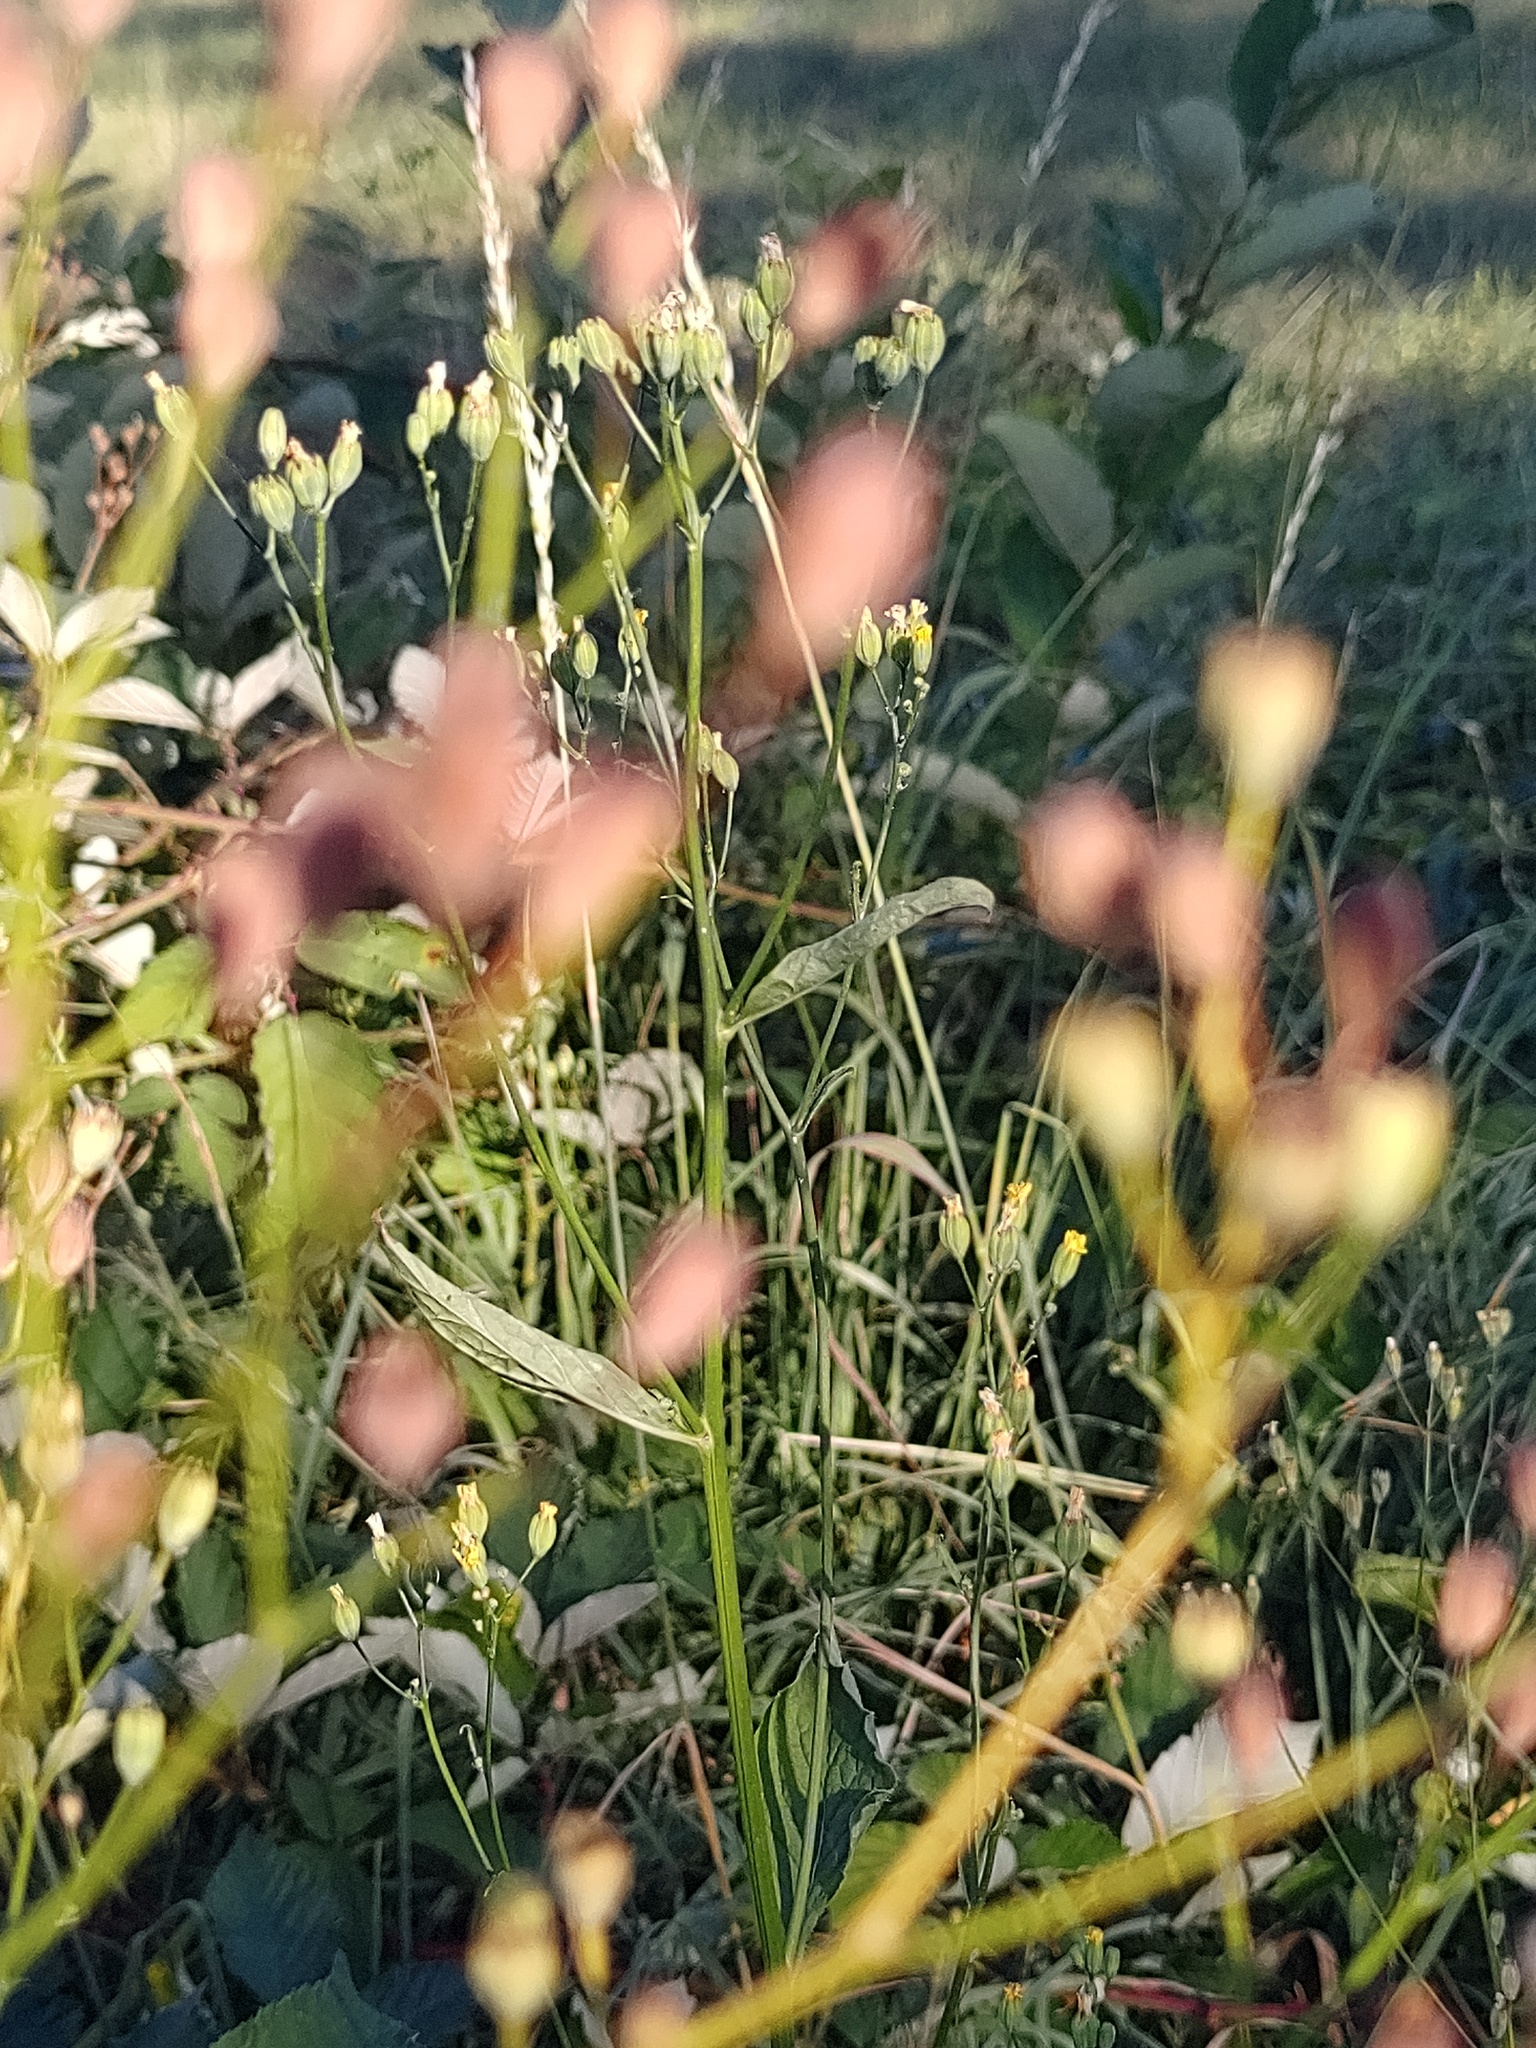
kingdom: Plantae
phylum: Tracheophyta
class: Magnoliopsida
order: Asterales
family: Asteraceae
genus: Lapsana
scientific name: Lapsana communis
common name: Nipplewort
